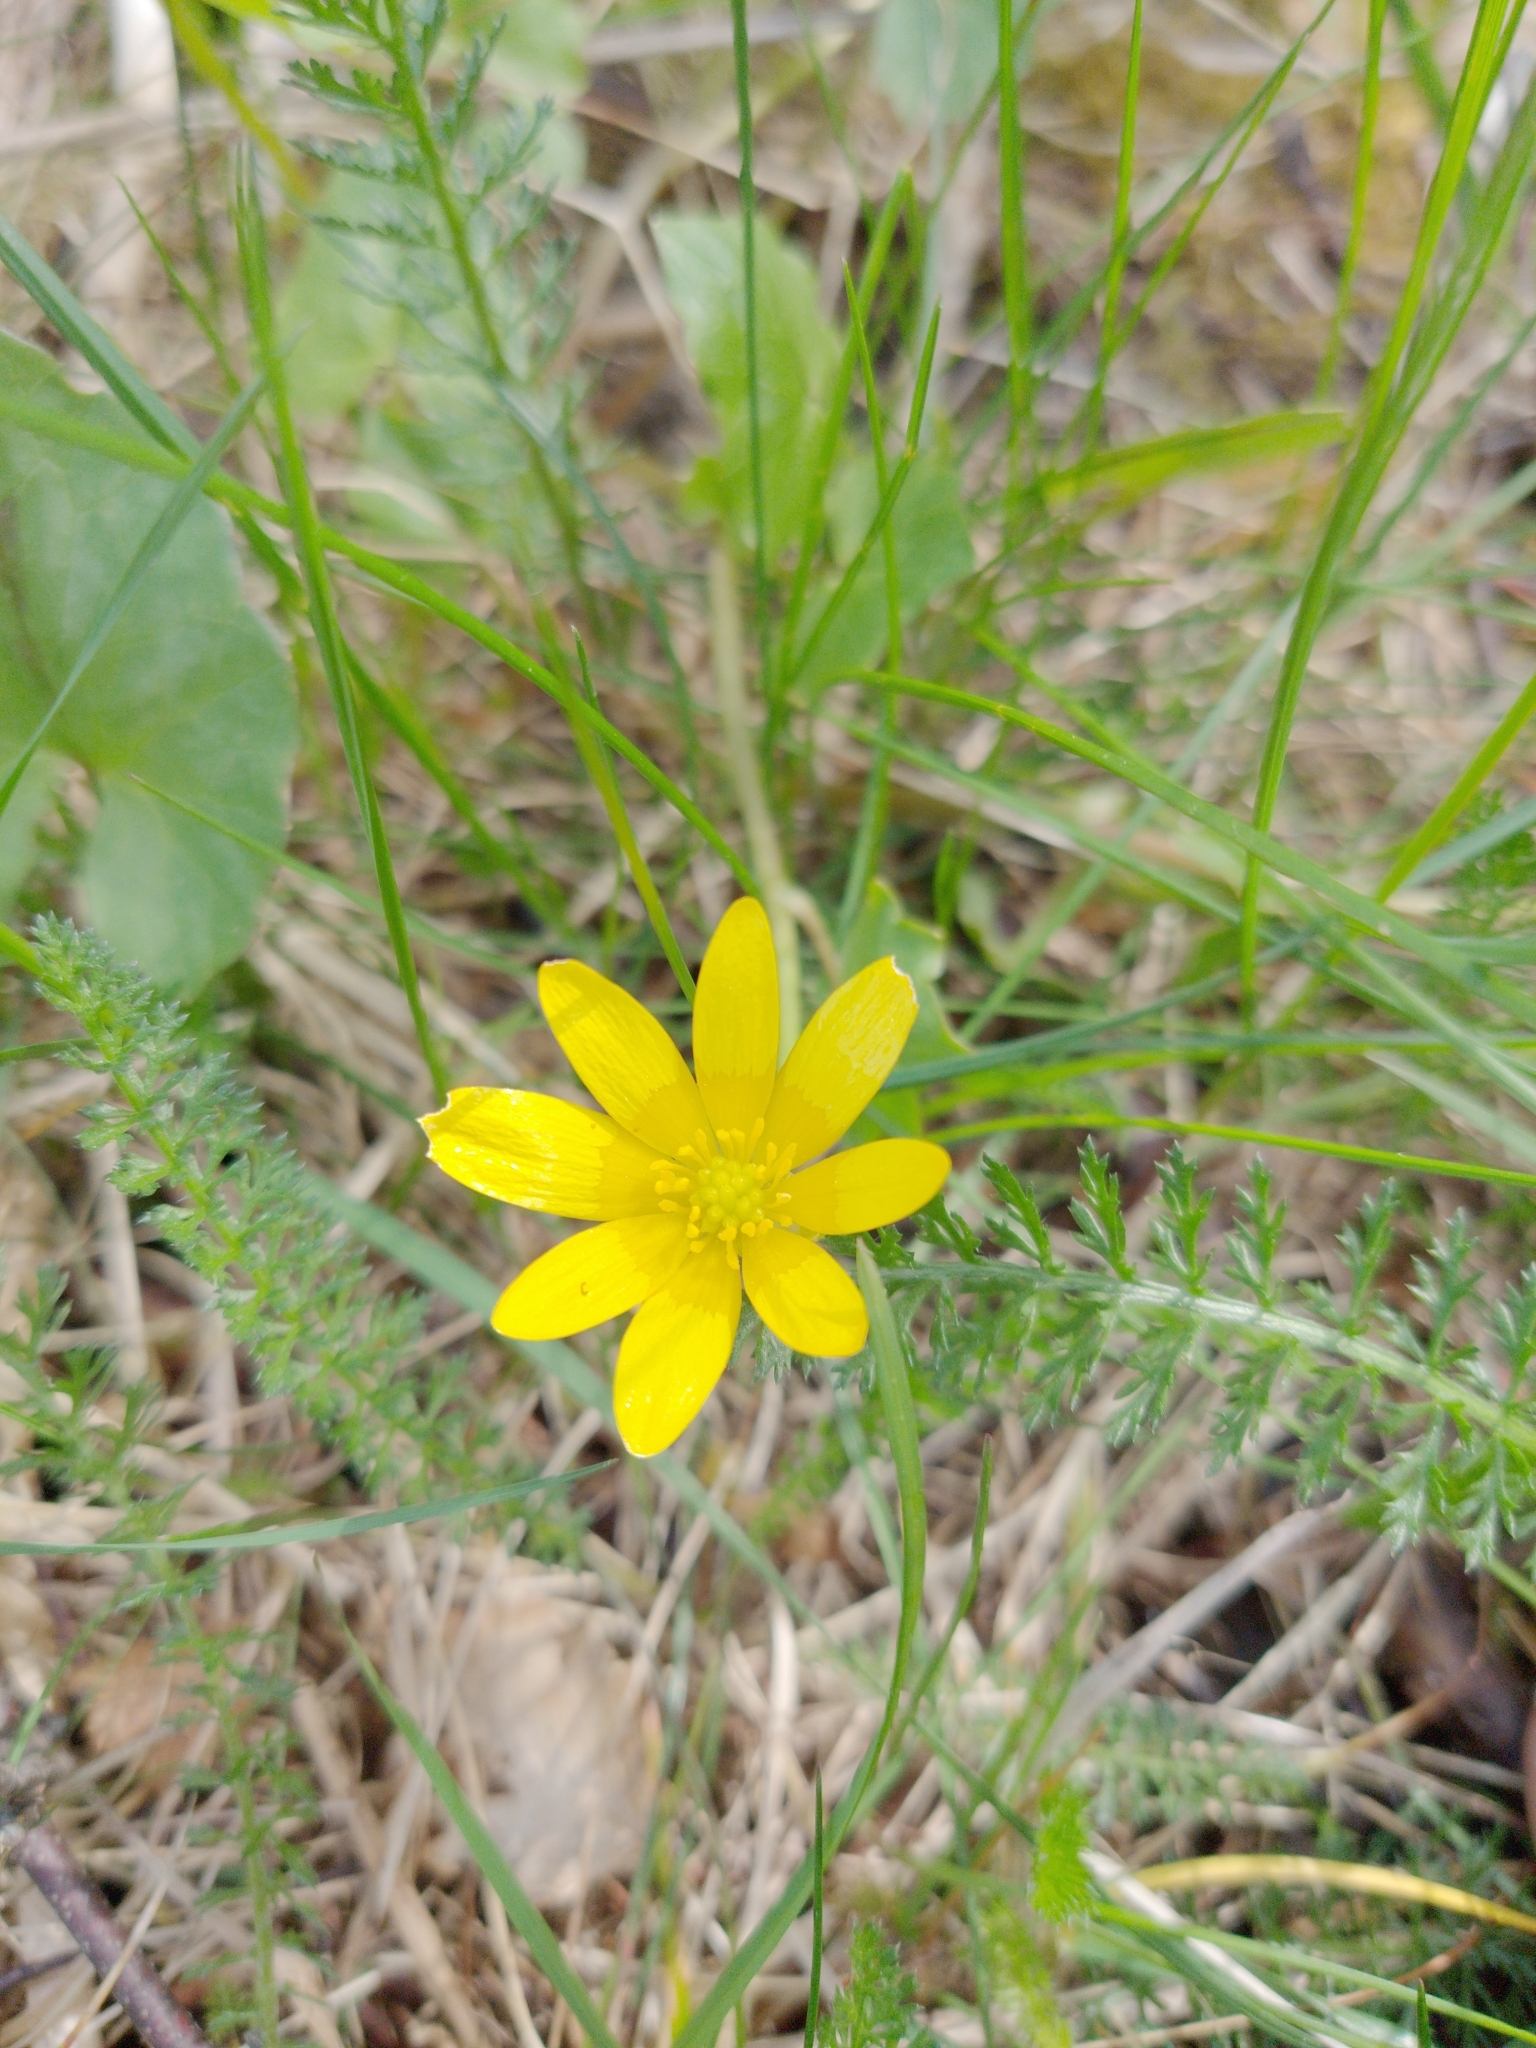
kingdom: Plantae
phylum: Tracheophyta
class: Magnoliopsida
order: Ranunculales
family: Ranunculaceae
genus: Ficaria
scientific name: Ficaria verna
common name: Lesser celandine
